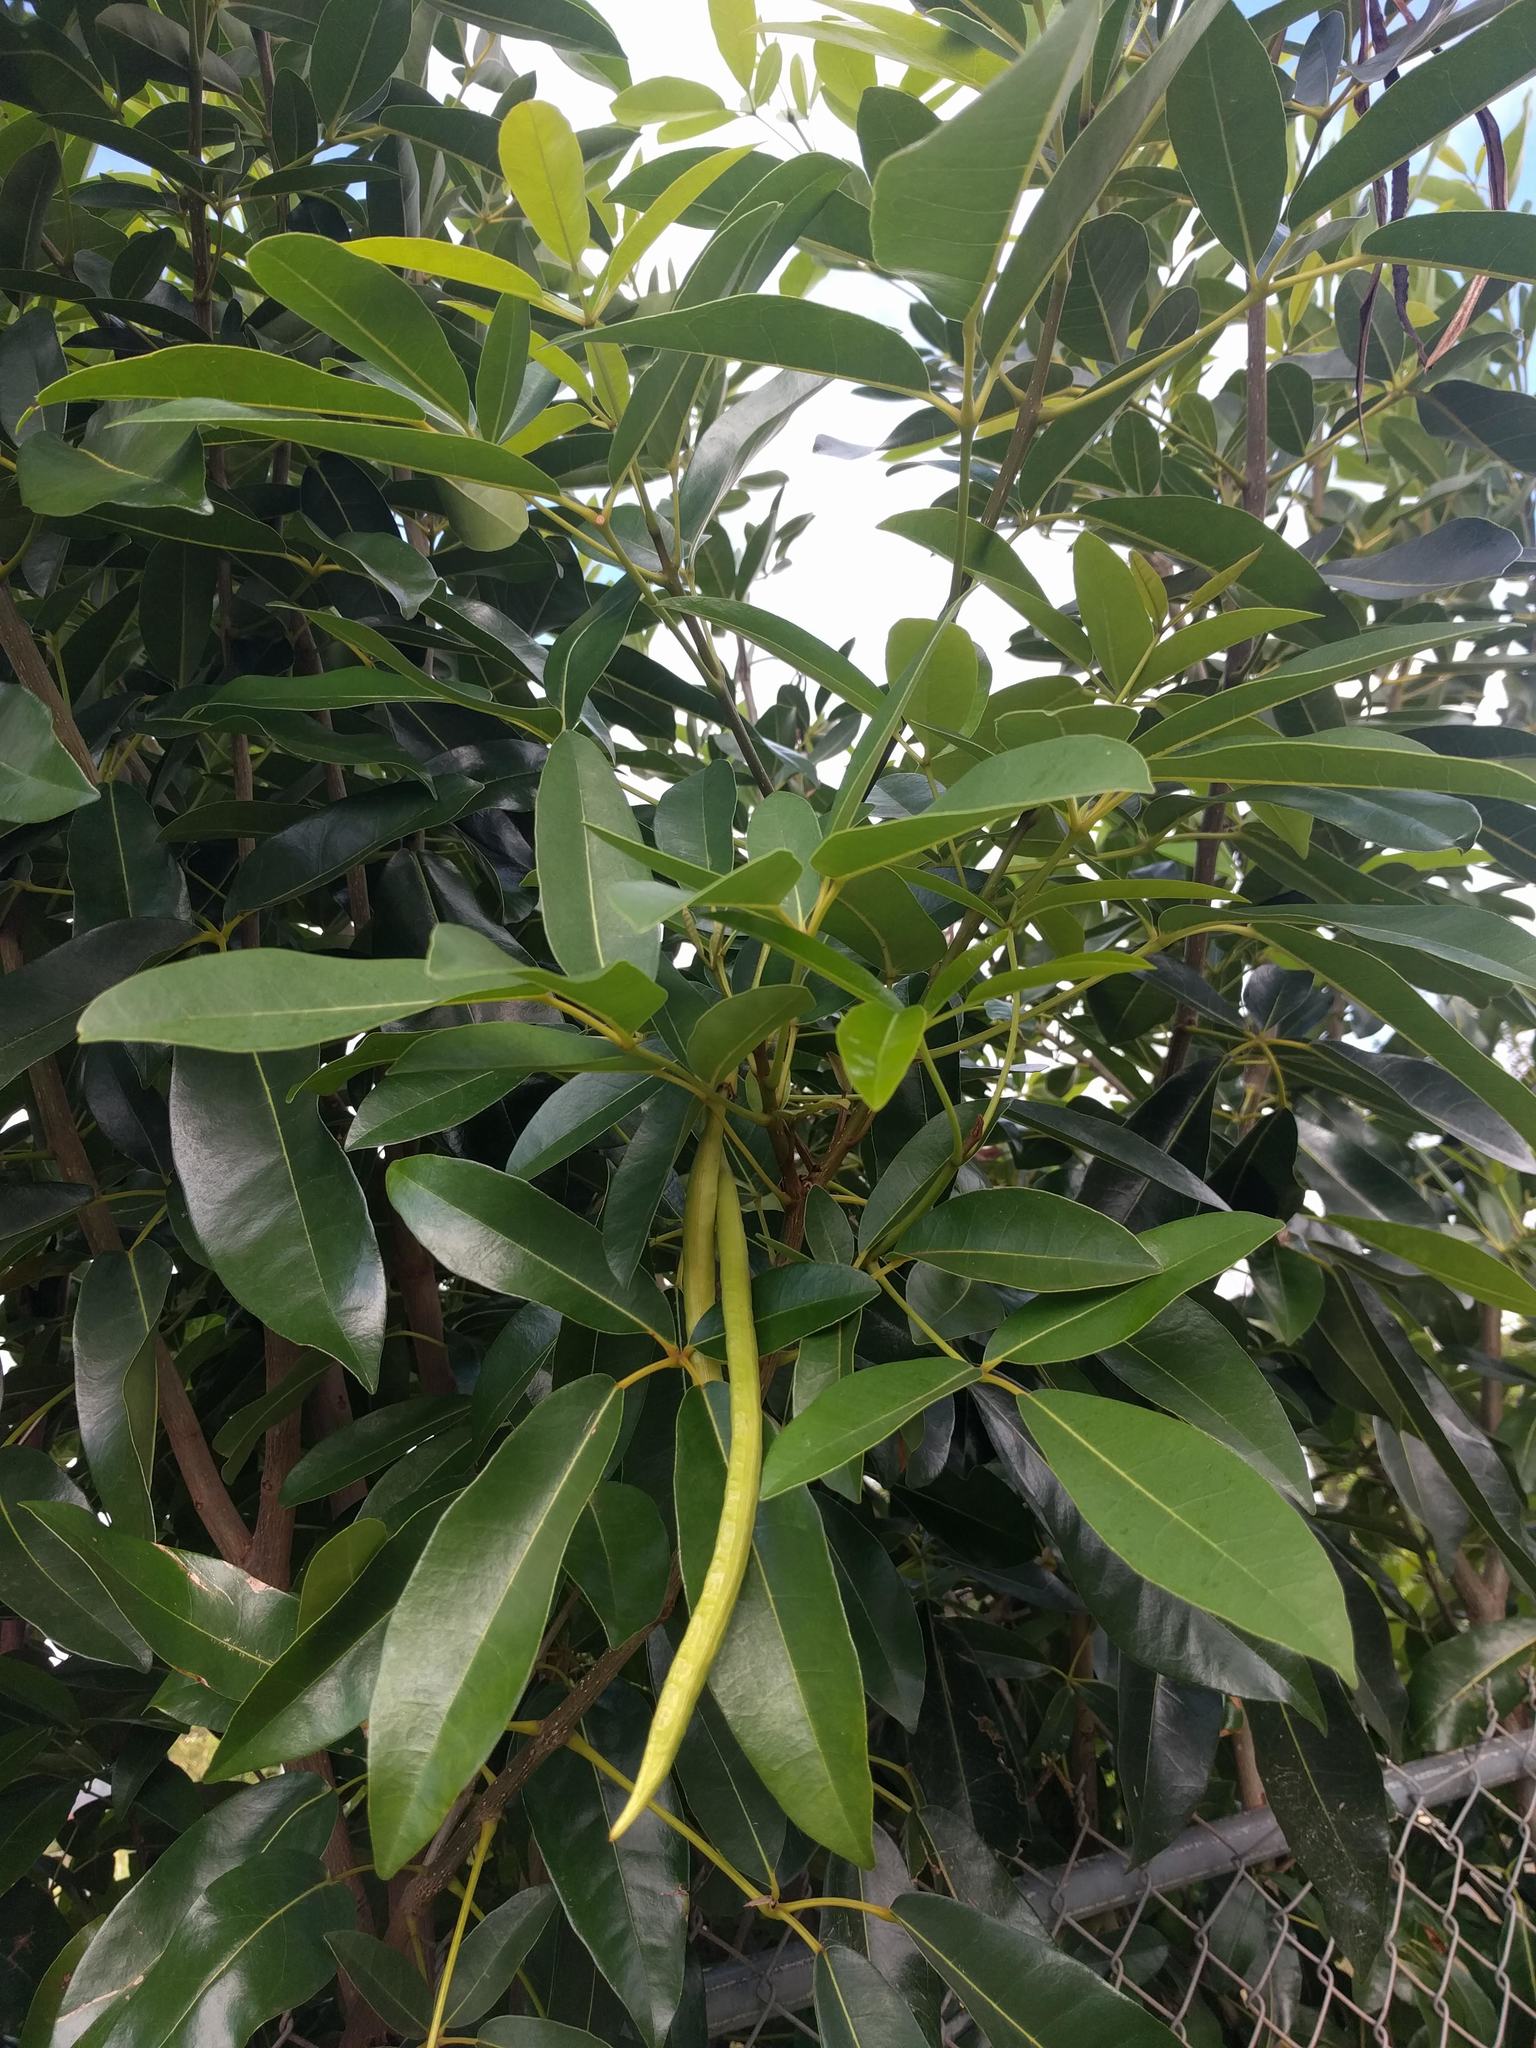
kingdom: Plantae
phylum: Tracheophyta
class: Magnoliopsida
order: Lamiales
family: Bignoniaceae
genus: Tabebuia
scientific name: Tabebuia heterophylla
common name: White cedar
